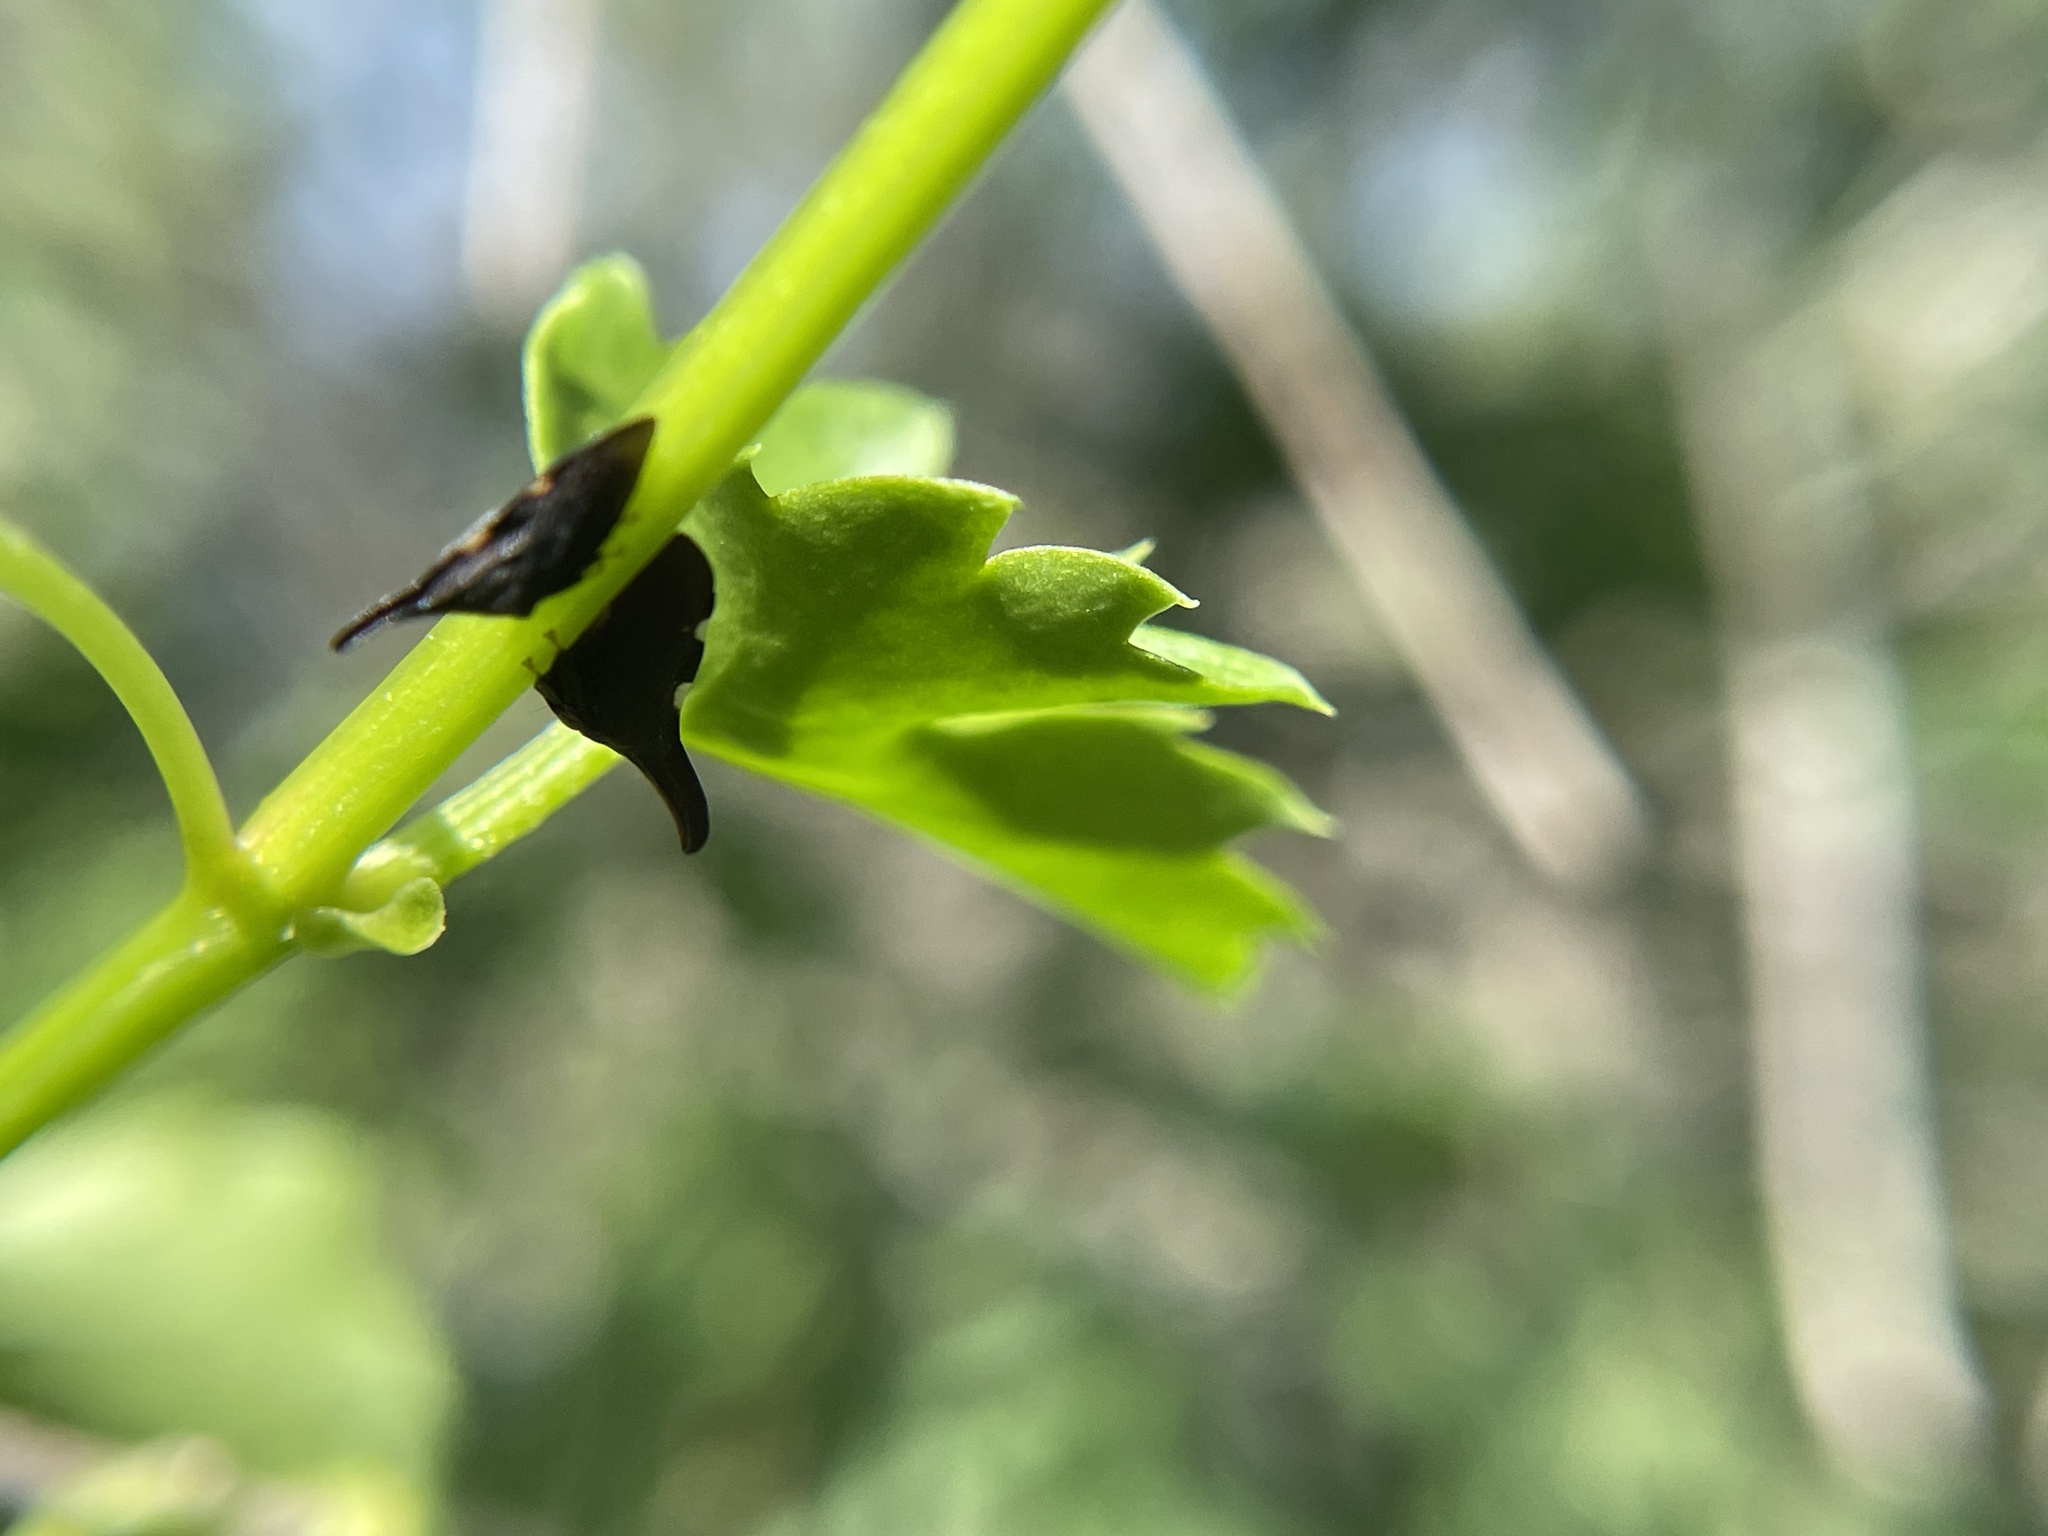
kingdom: Animalia
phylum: Arthropoda
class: Insecta
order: Hemiptera
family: Membracidae
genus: Enchenopa
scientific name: Enchenopa
